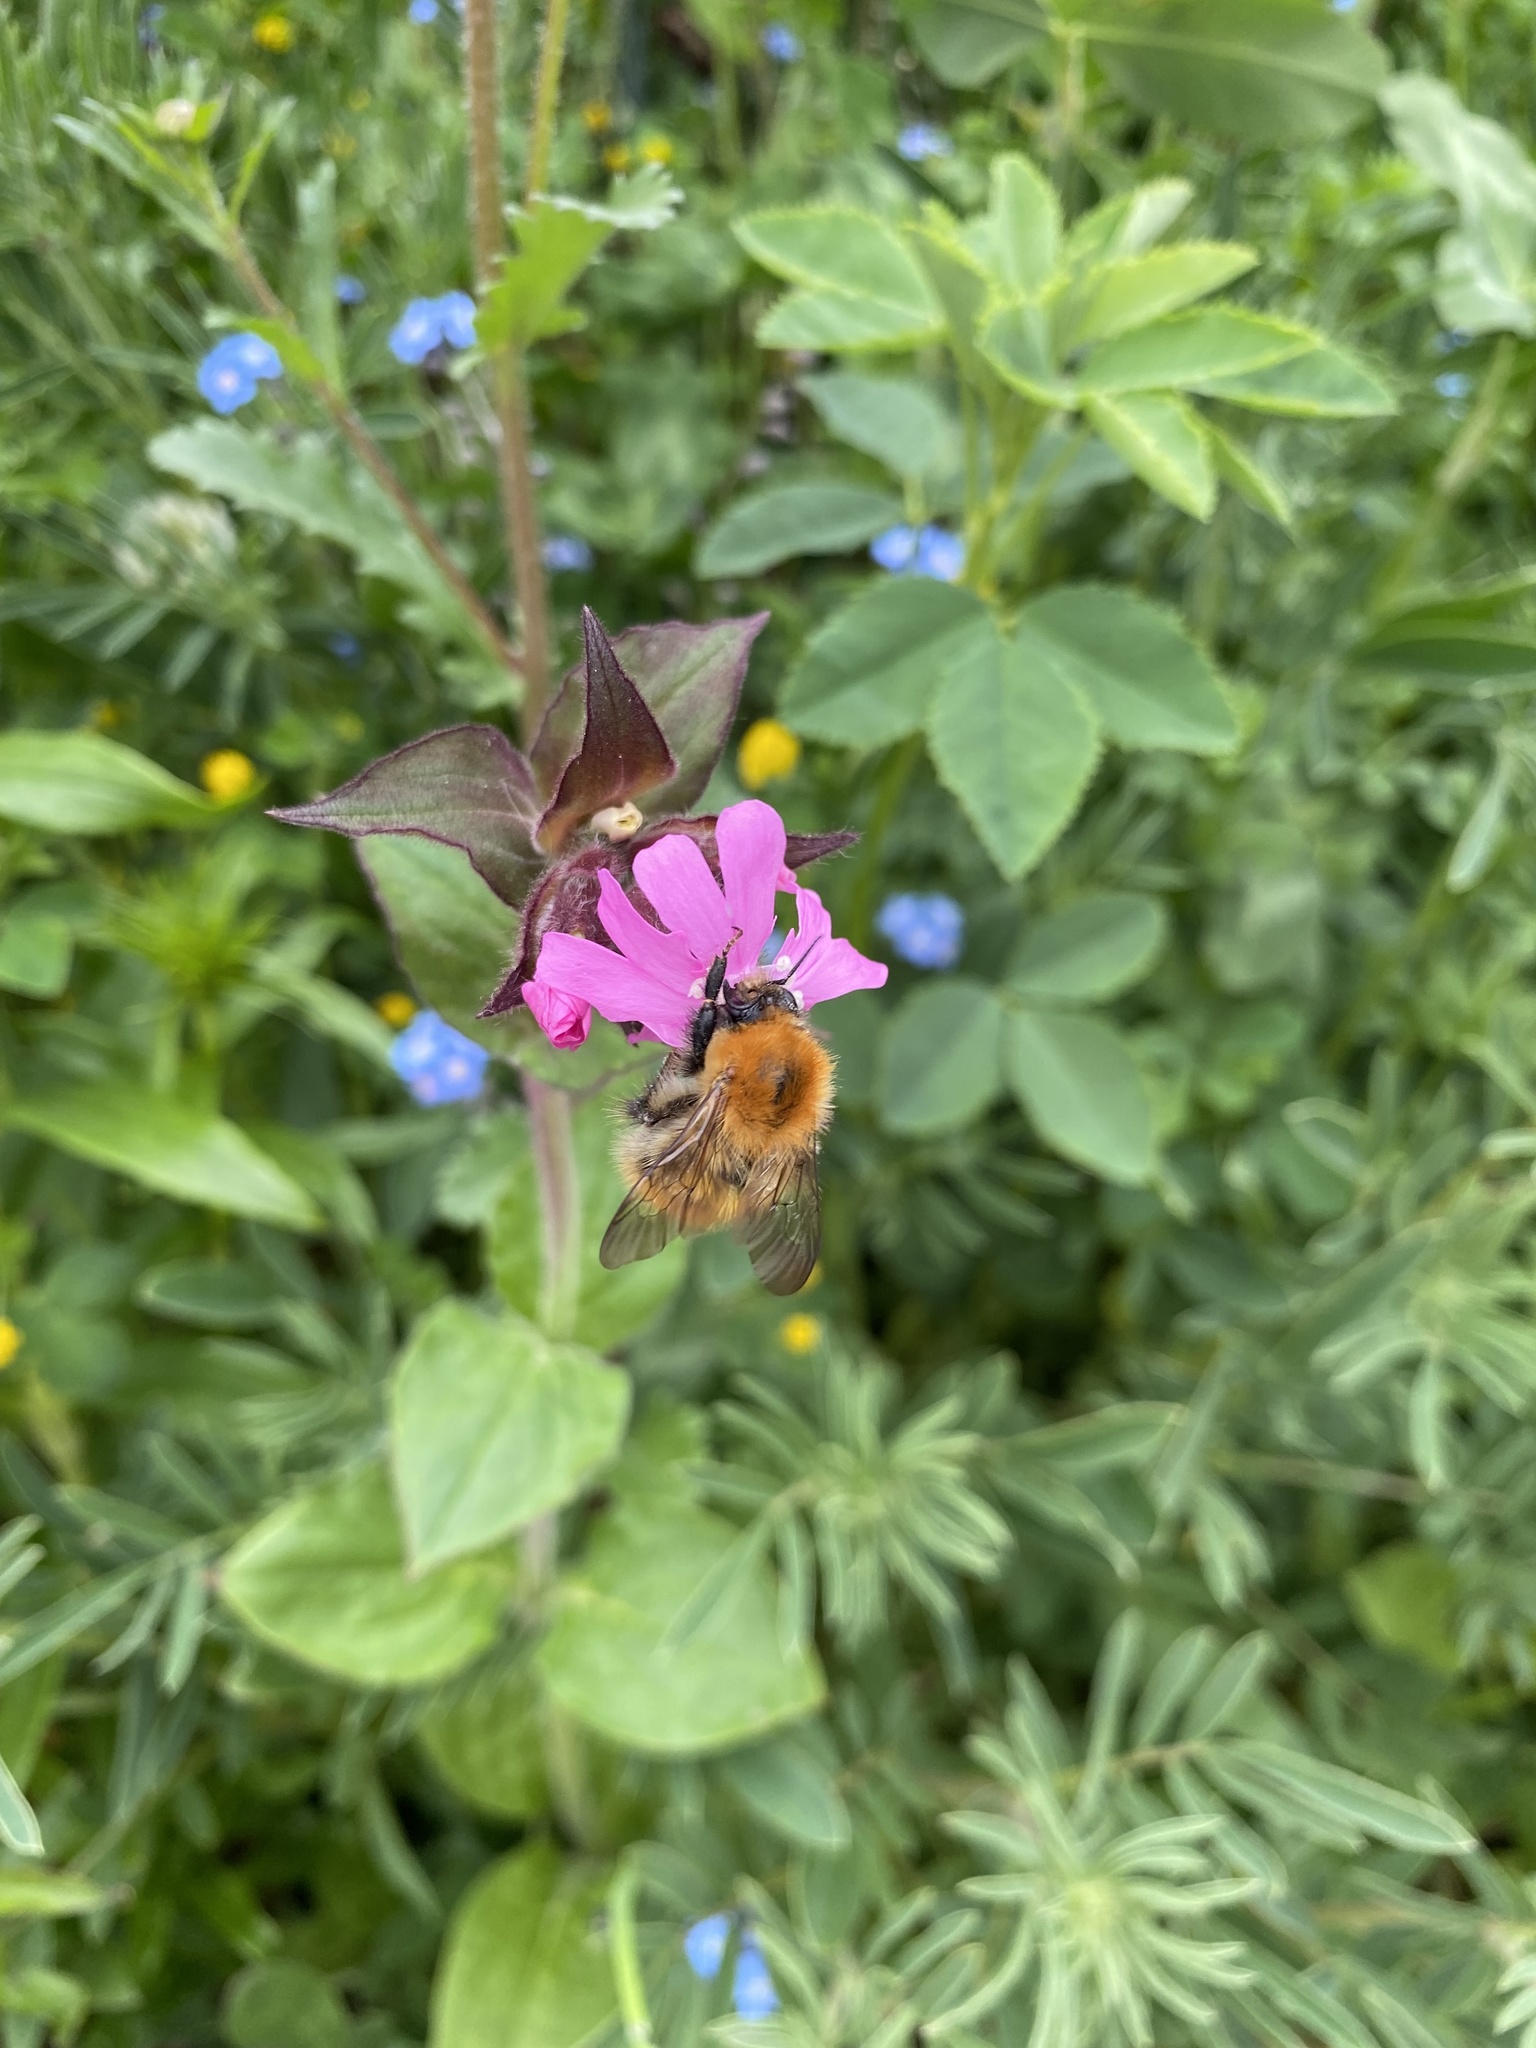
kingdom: Animalia
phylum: Arthropoda
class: Insecta
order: Hymenoptera
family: Apidae
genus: Bombus
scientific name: Bombus pascuorum
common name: Common carder bee
